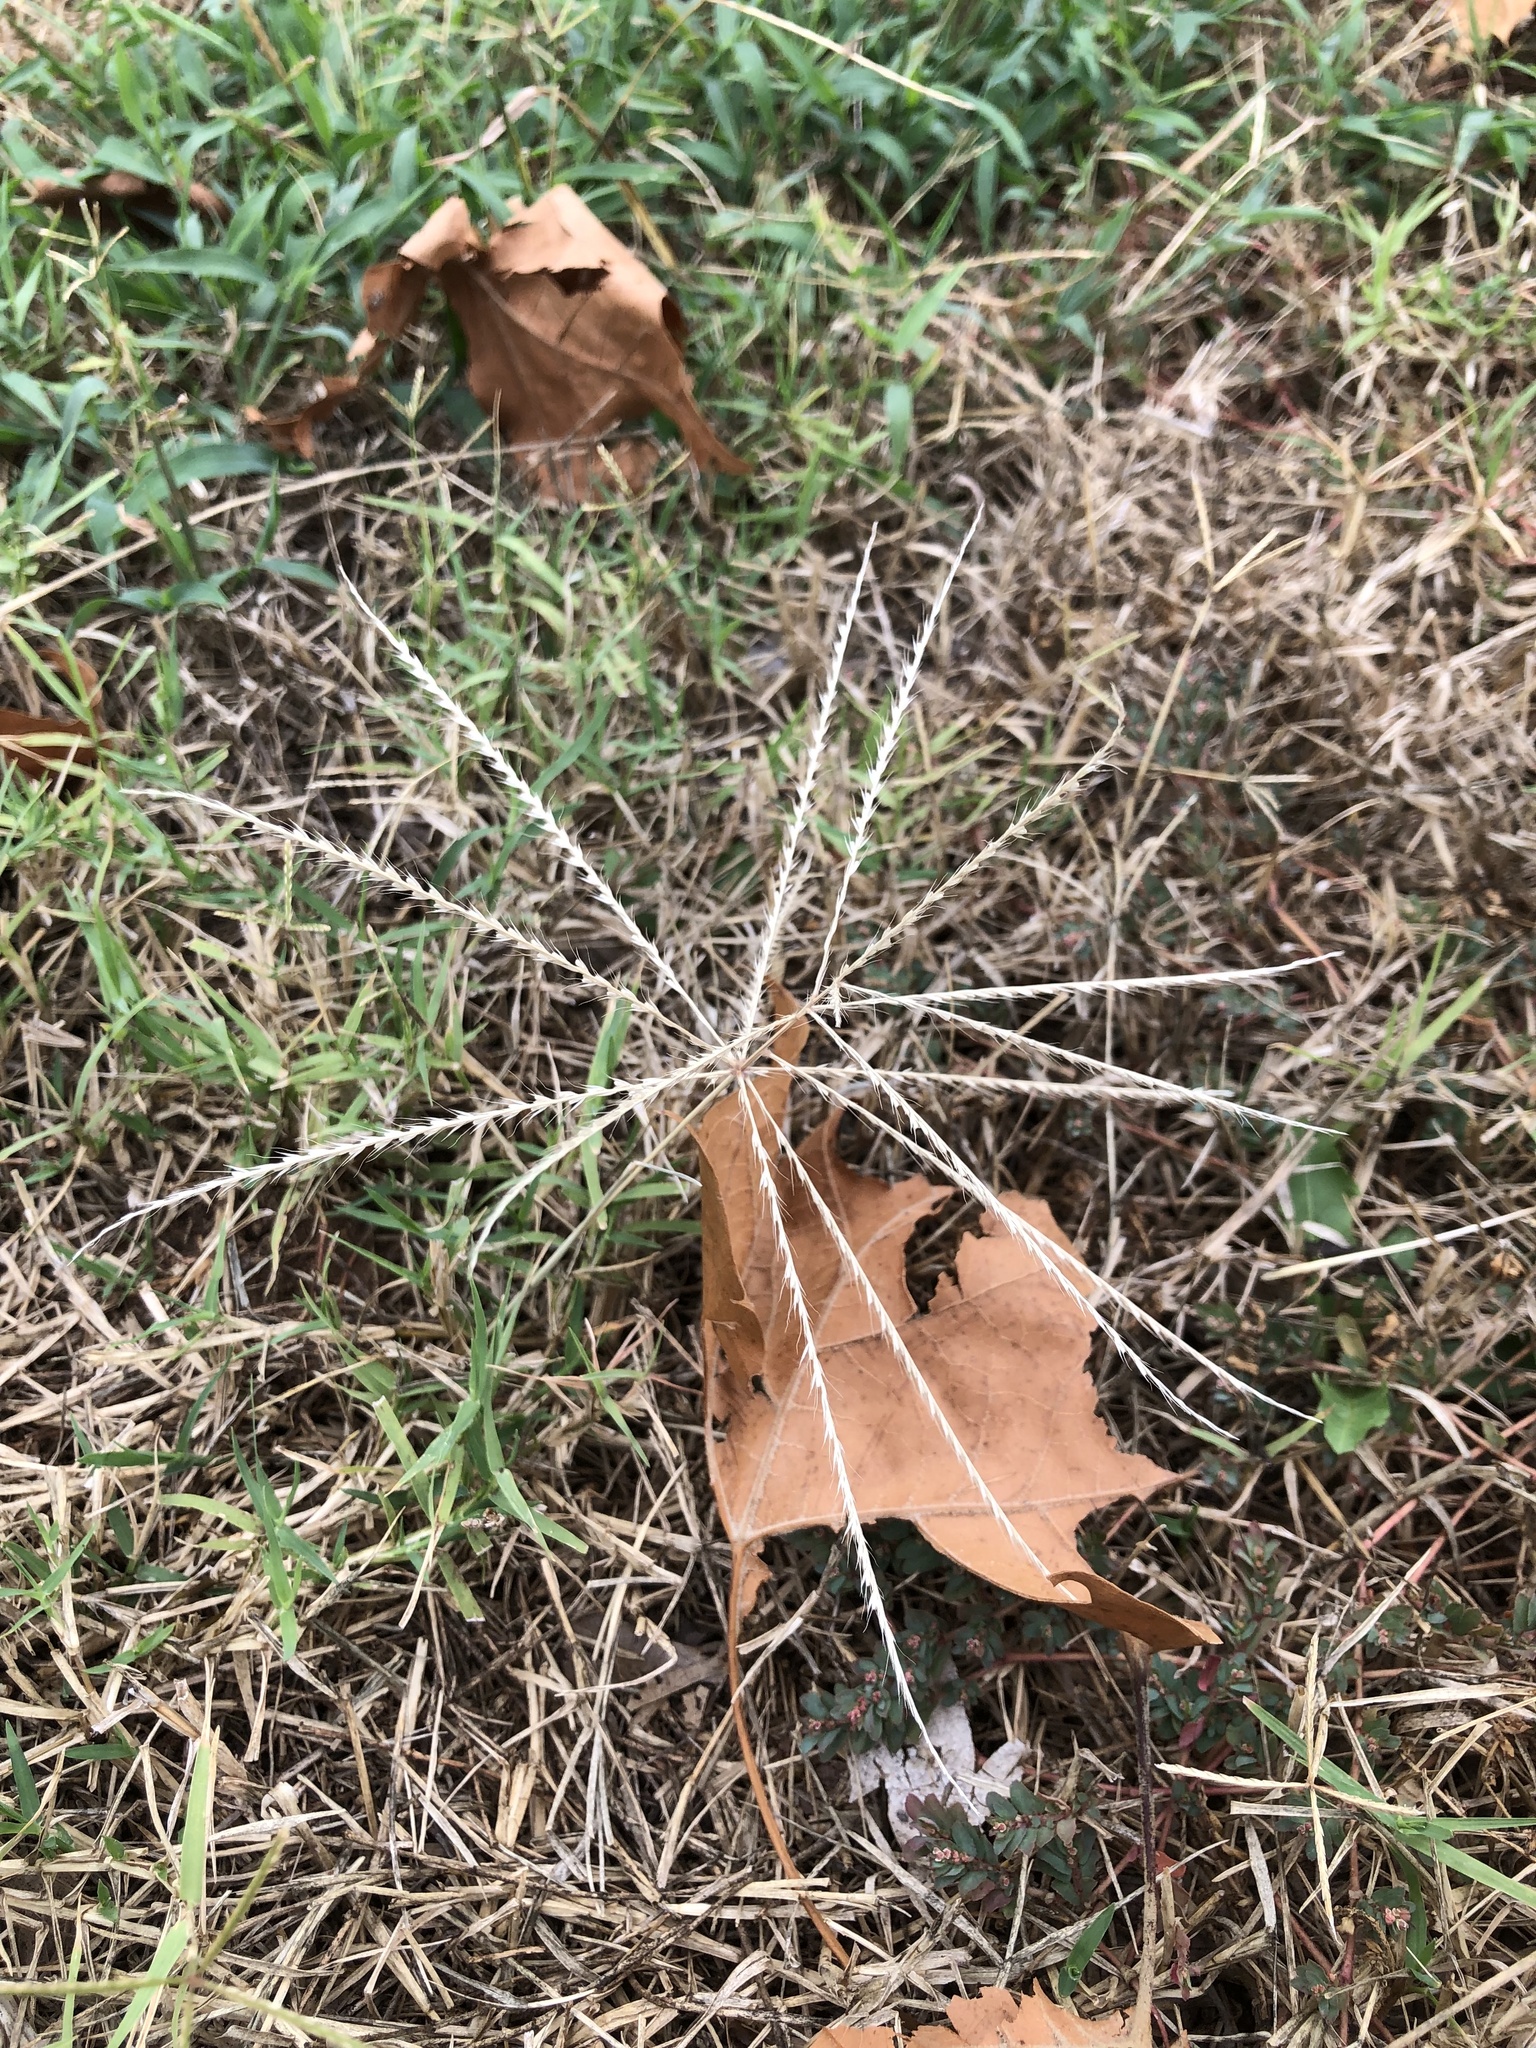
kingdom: Plantae
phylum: Tracheophyta
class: Liliopsida
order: Poales
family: Poaceae
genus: Chloris
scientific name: Chloris verticillata
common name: Tumble windmill grass
